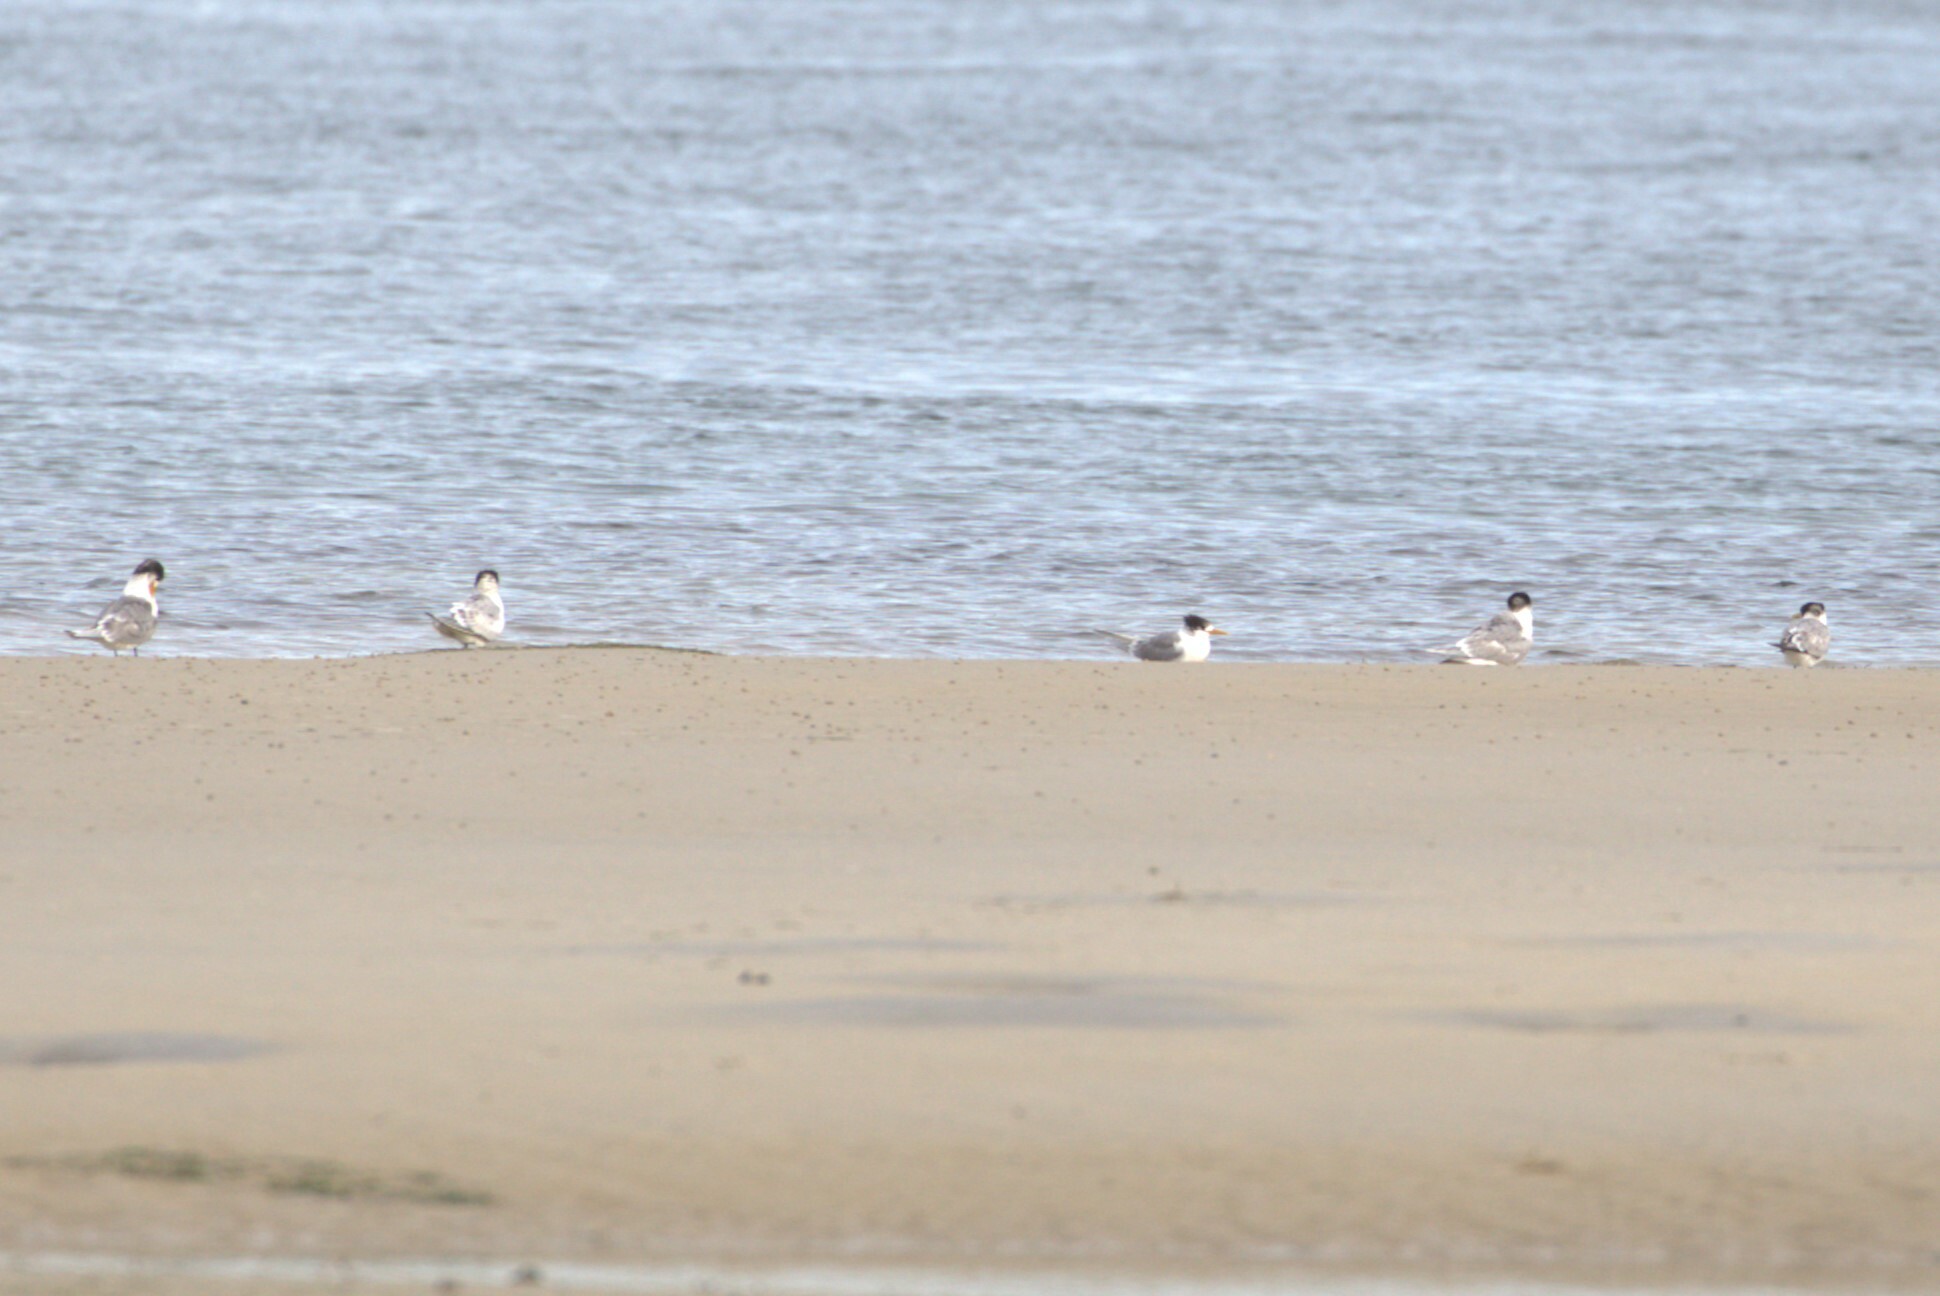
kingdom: Animalia
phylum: Chordata
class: Aves
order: Charadriiformes
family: Laridae
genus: Thalasseus
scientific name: Thalasseus bergii
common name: Greater crested tern
